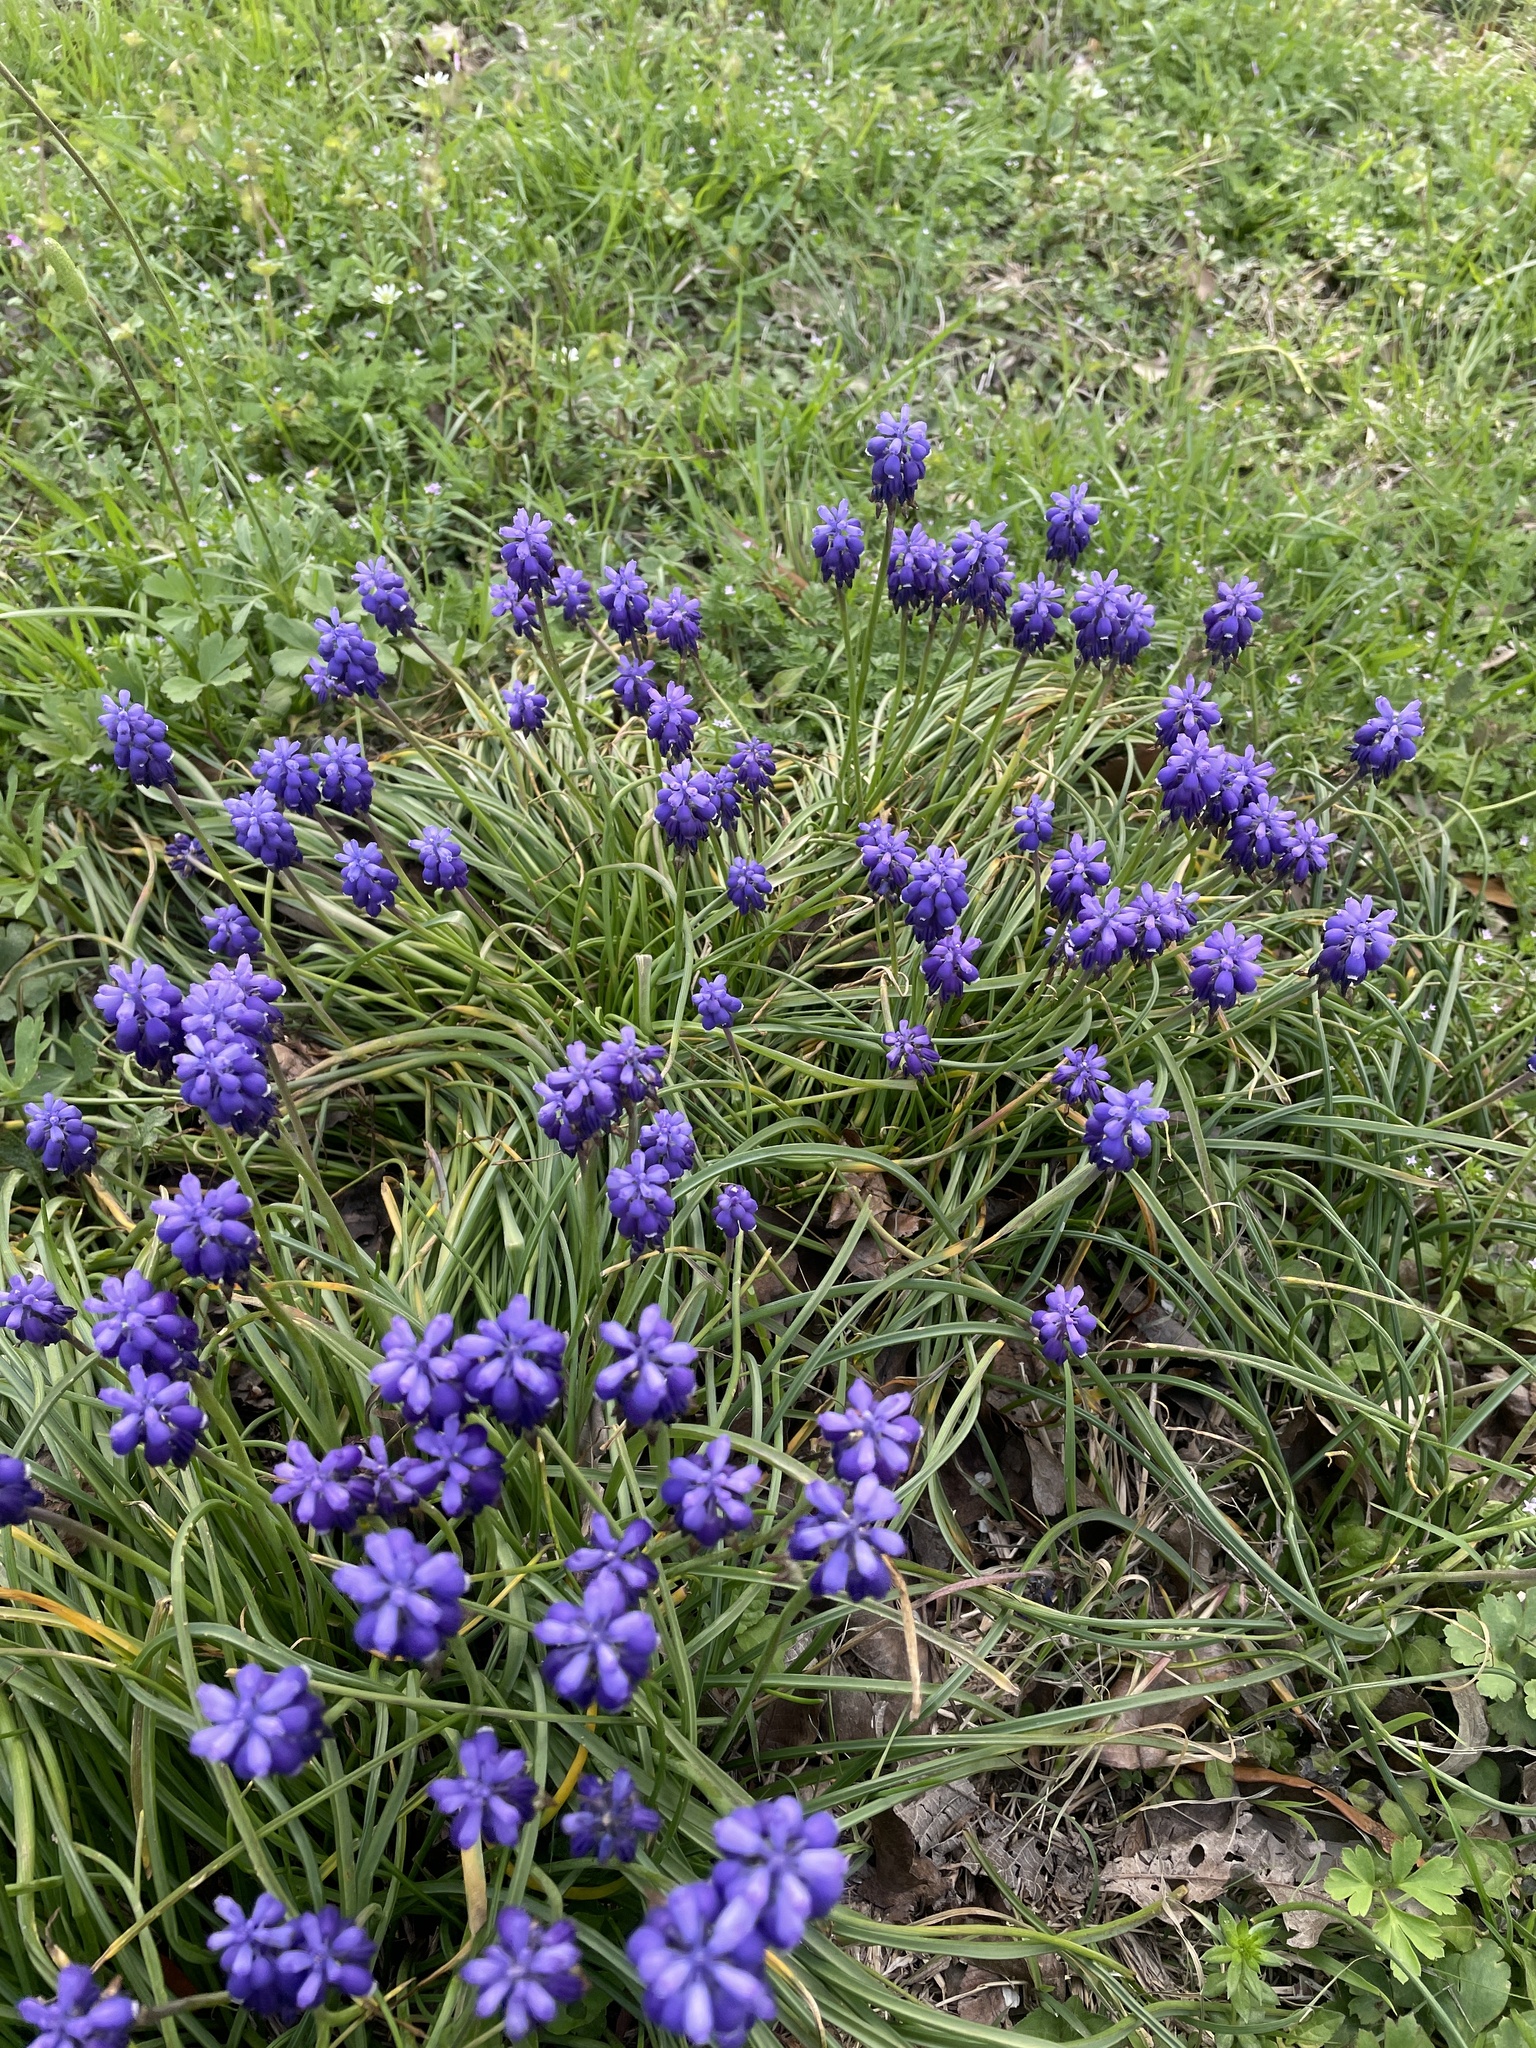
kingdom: Plantae
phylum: Tracheophyta
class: Liliopsida
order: Asparagales
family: Asparagaceae
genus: Muscari
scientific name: Muscari neglectum
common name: Grape-hyacinth
